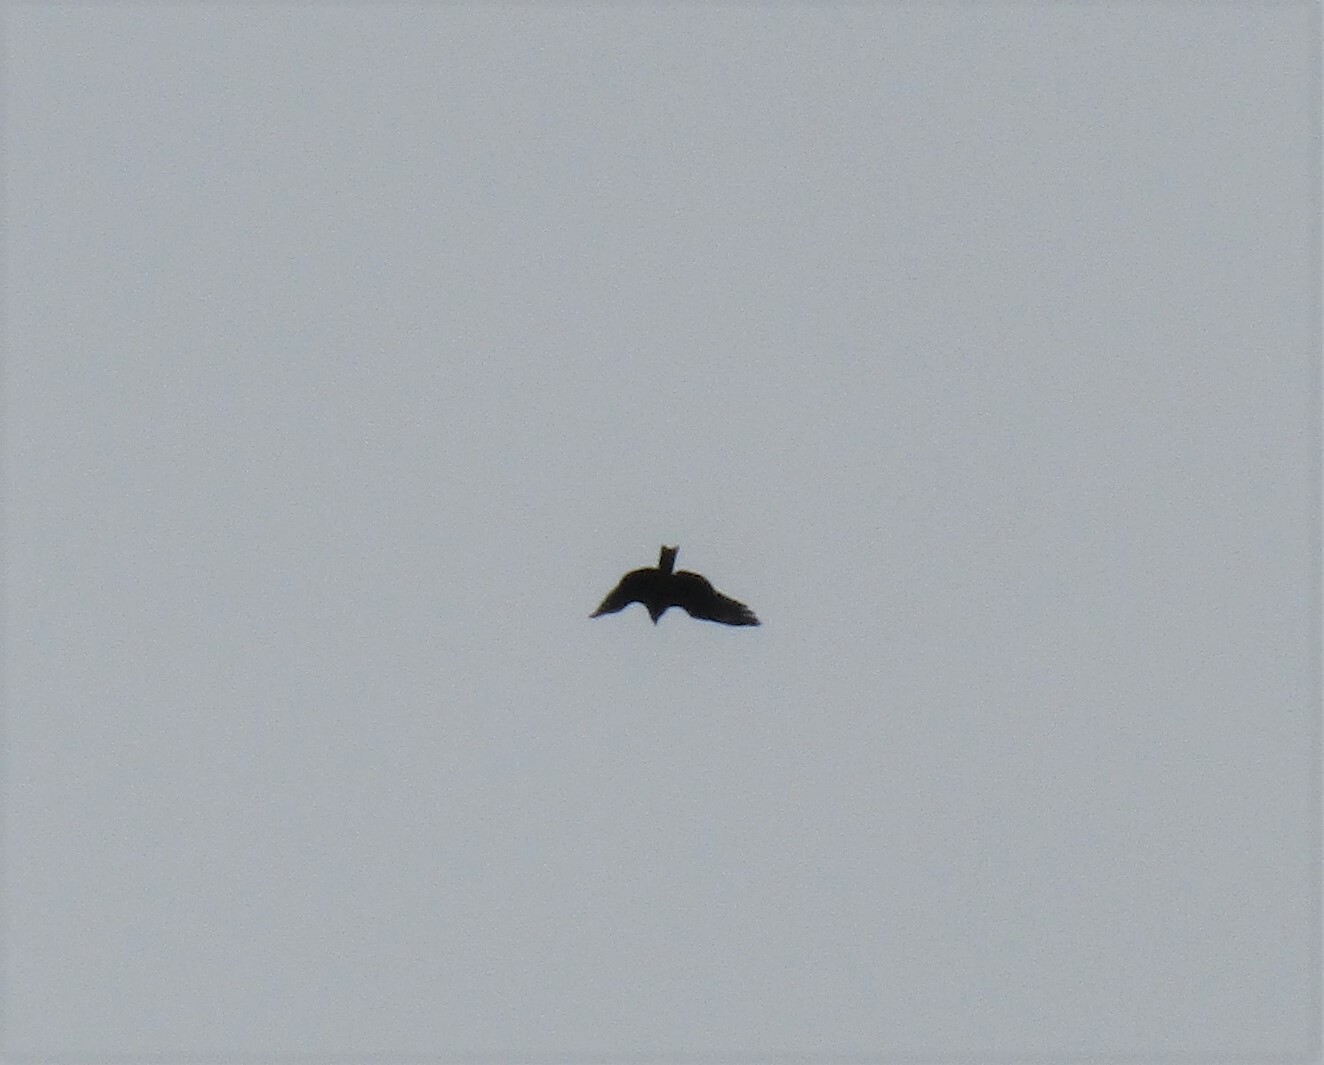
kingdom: Animalia
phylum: Chordata
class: Aves
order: Accipitriformes
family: Accipitridae
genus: Milvus
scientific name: Milvus migrans
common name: Black kite
